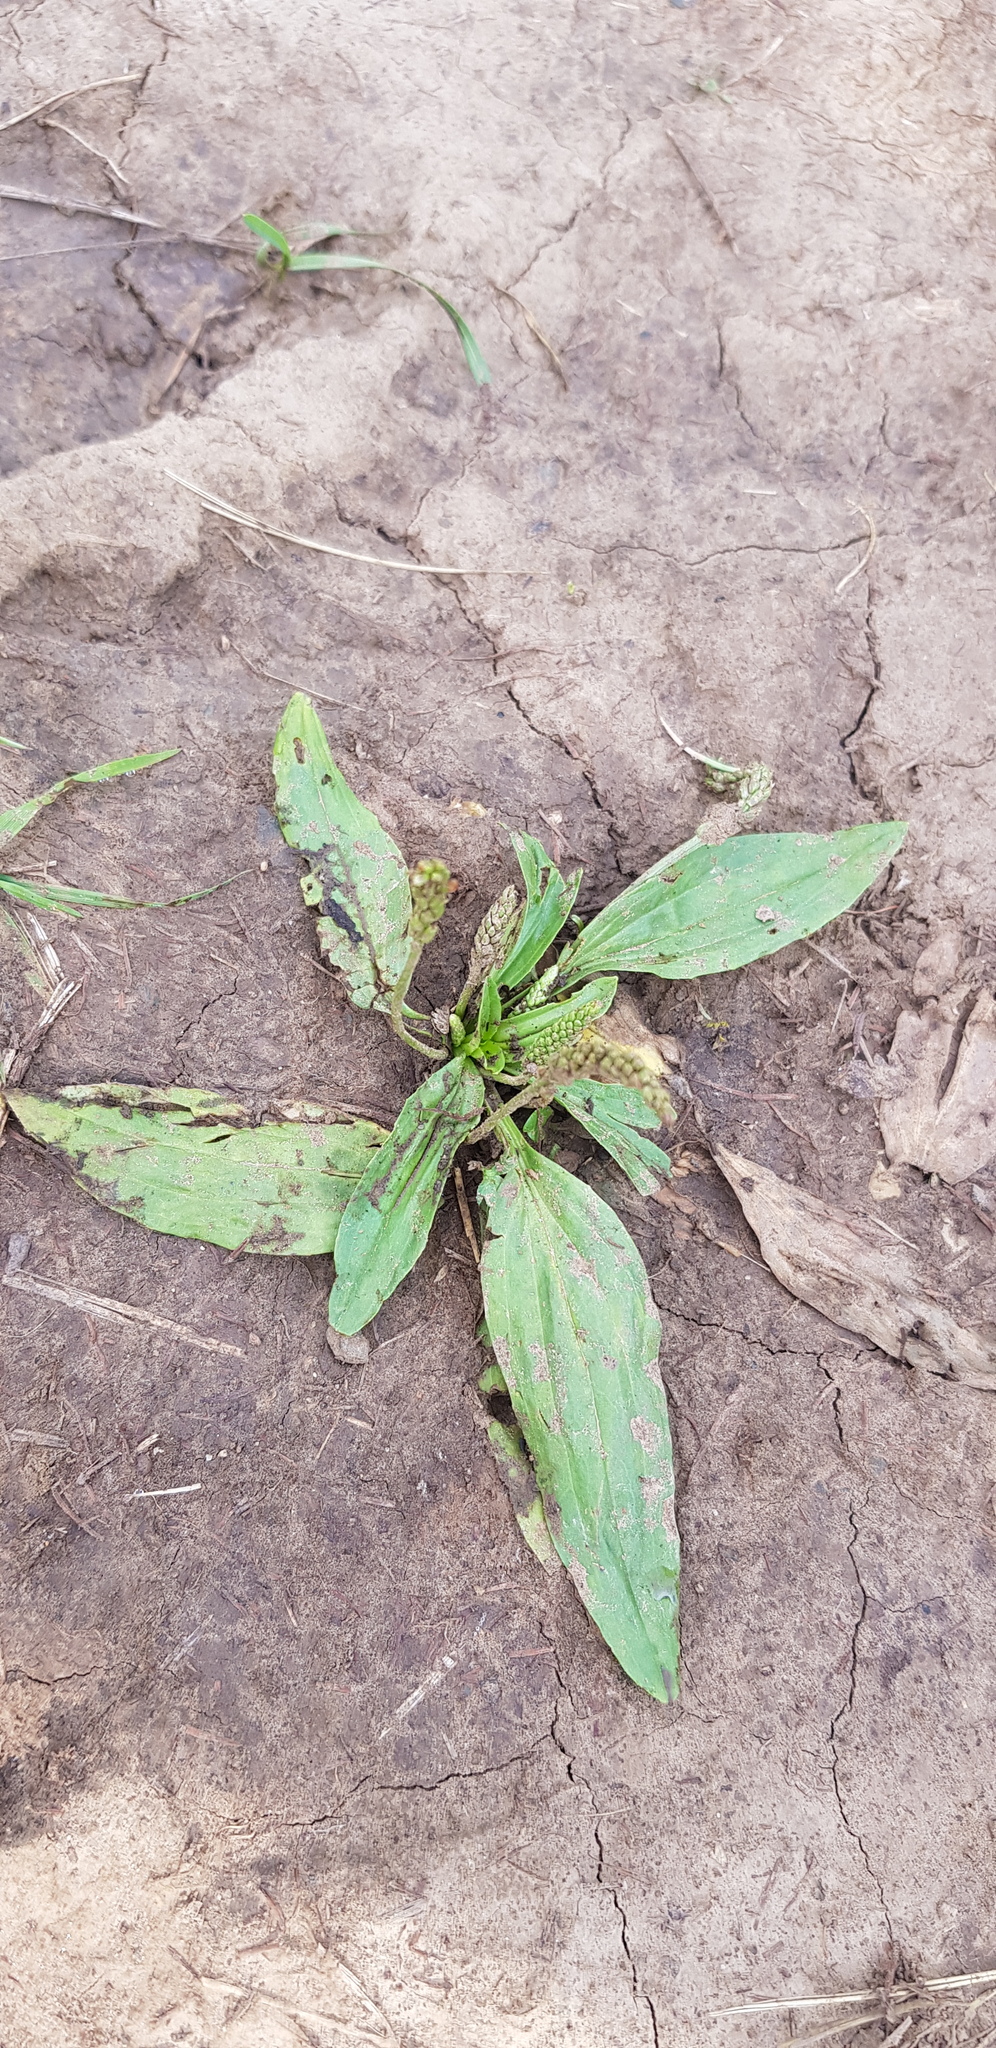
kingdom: Plantae
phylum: Tracheophyta
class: Magnoliopsida
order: Lamiales
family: Plantaginaceae
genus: Plantago
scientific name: Plantago depressa
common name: Depressed plantain
